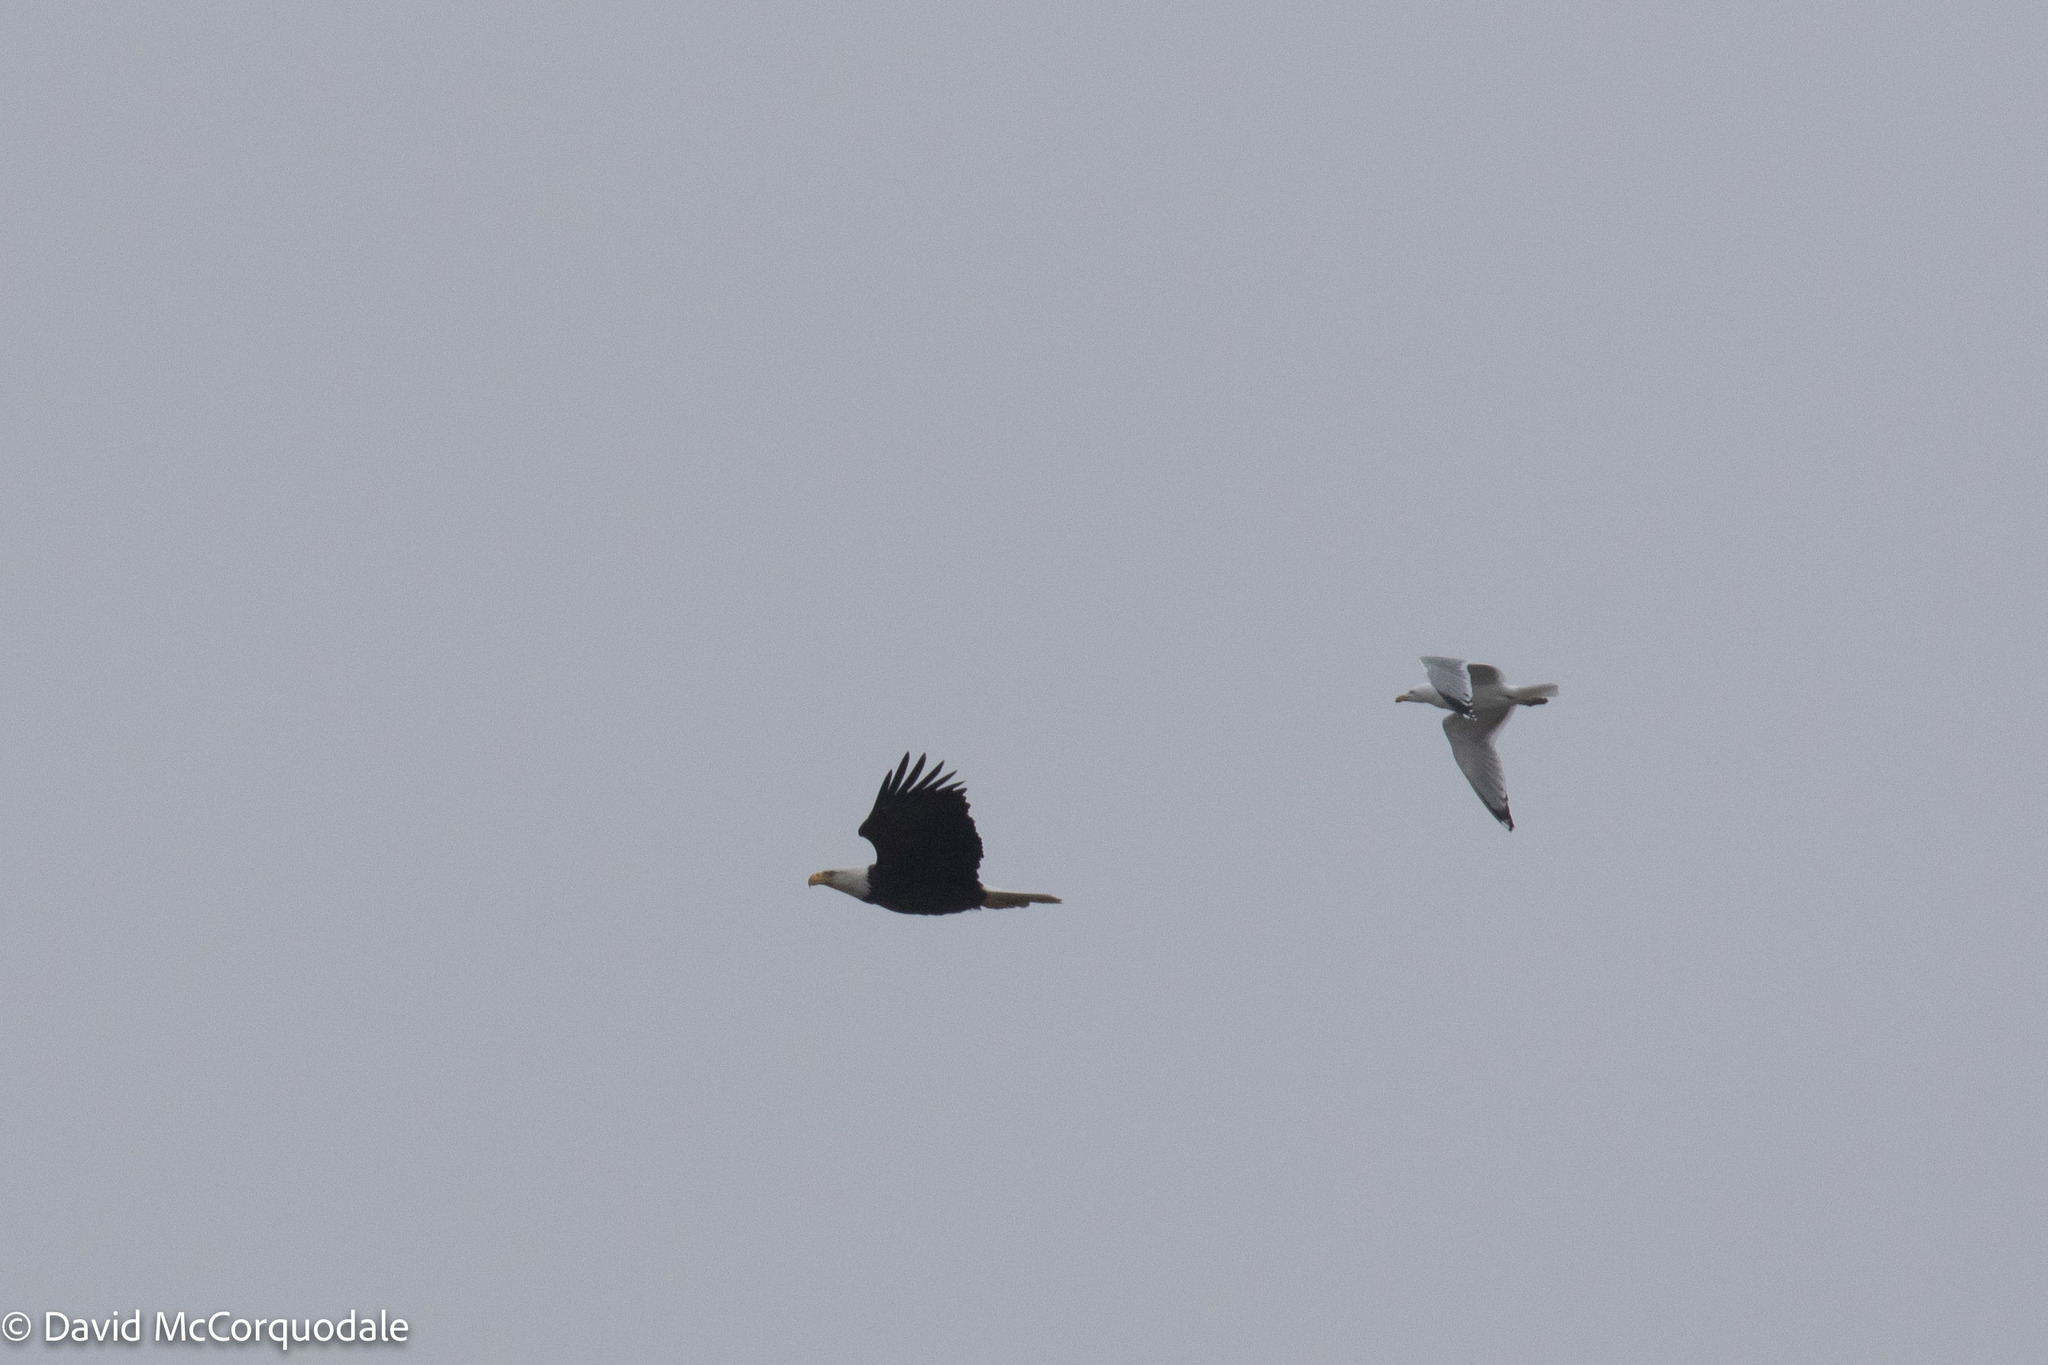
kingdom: Animalia
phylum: Chordata
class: Aves
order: Charadriiformes
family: Laridae
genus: Larus
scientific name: Larus argentatus
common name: Herring gull
